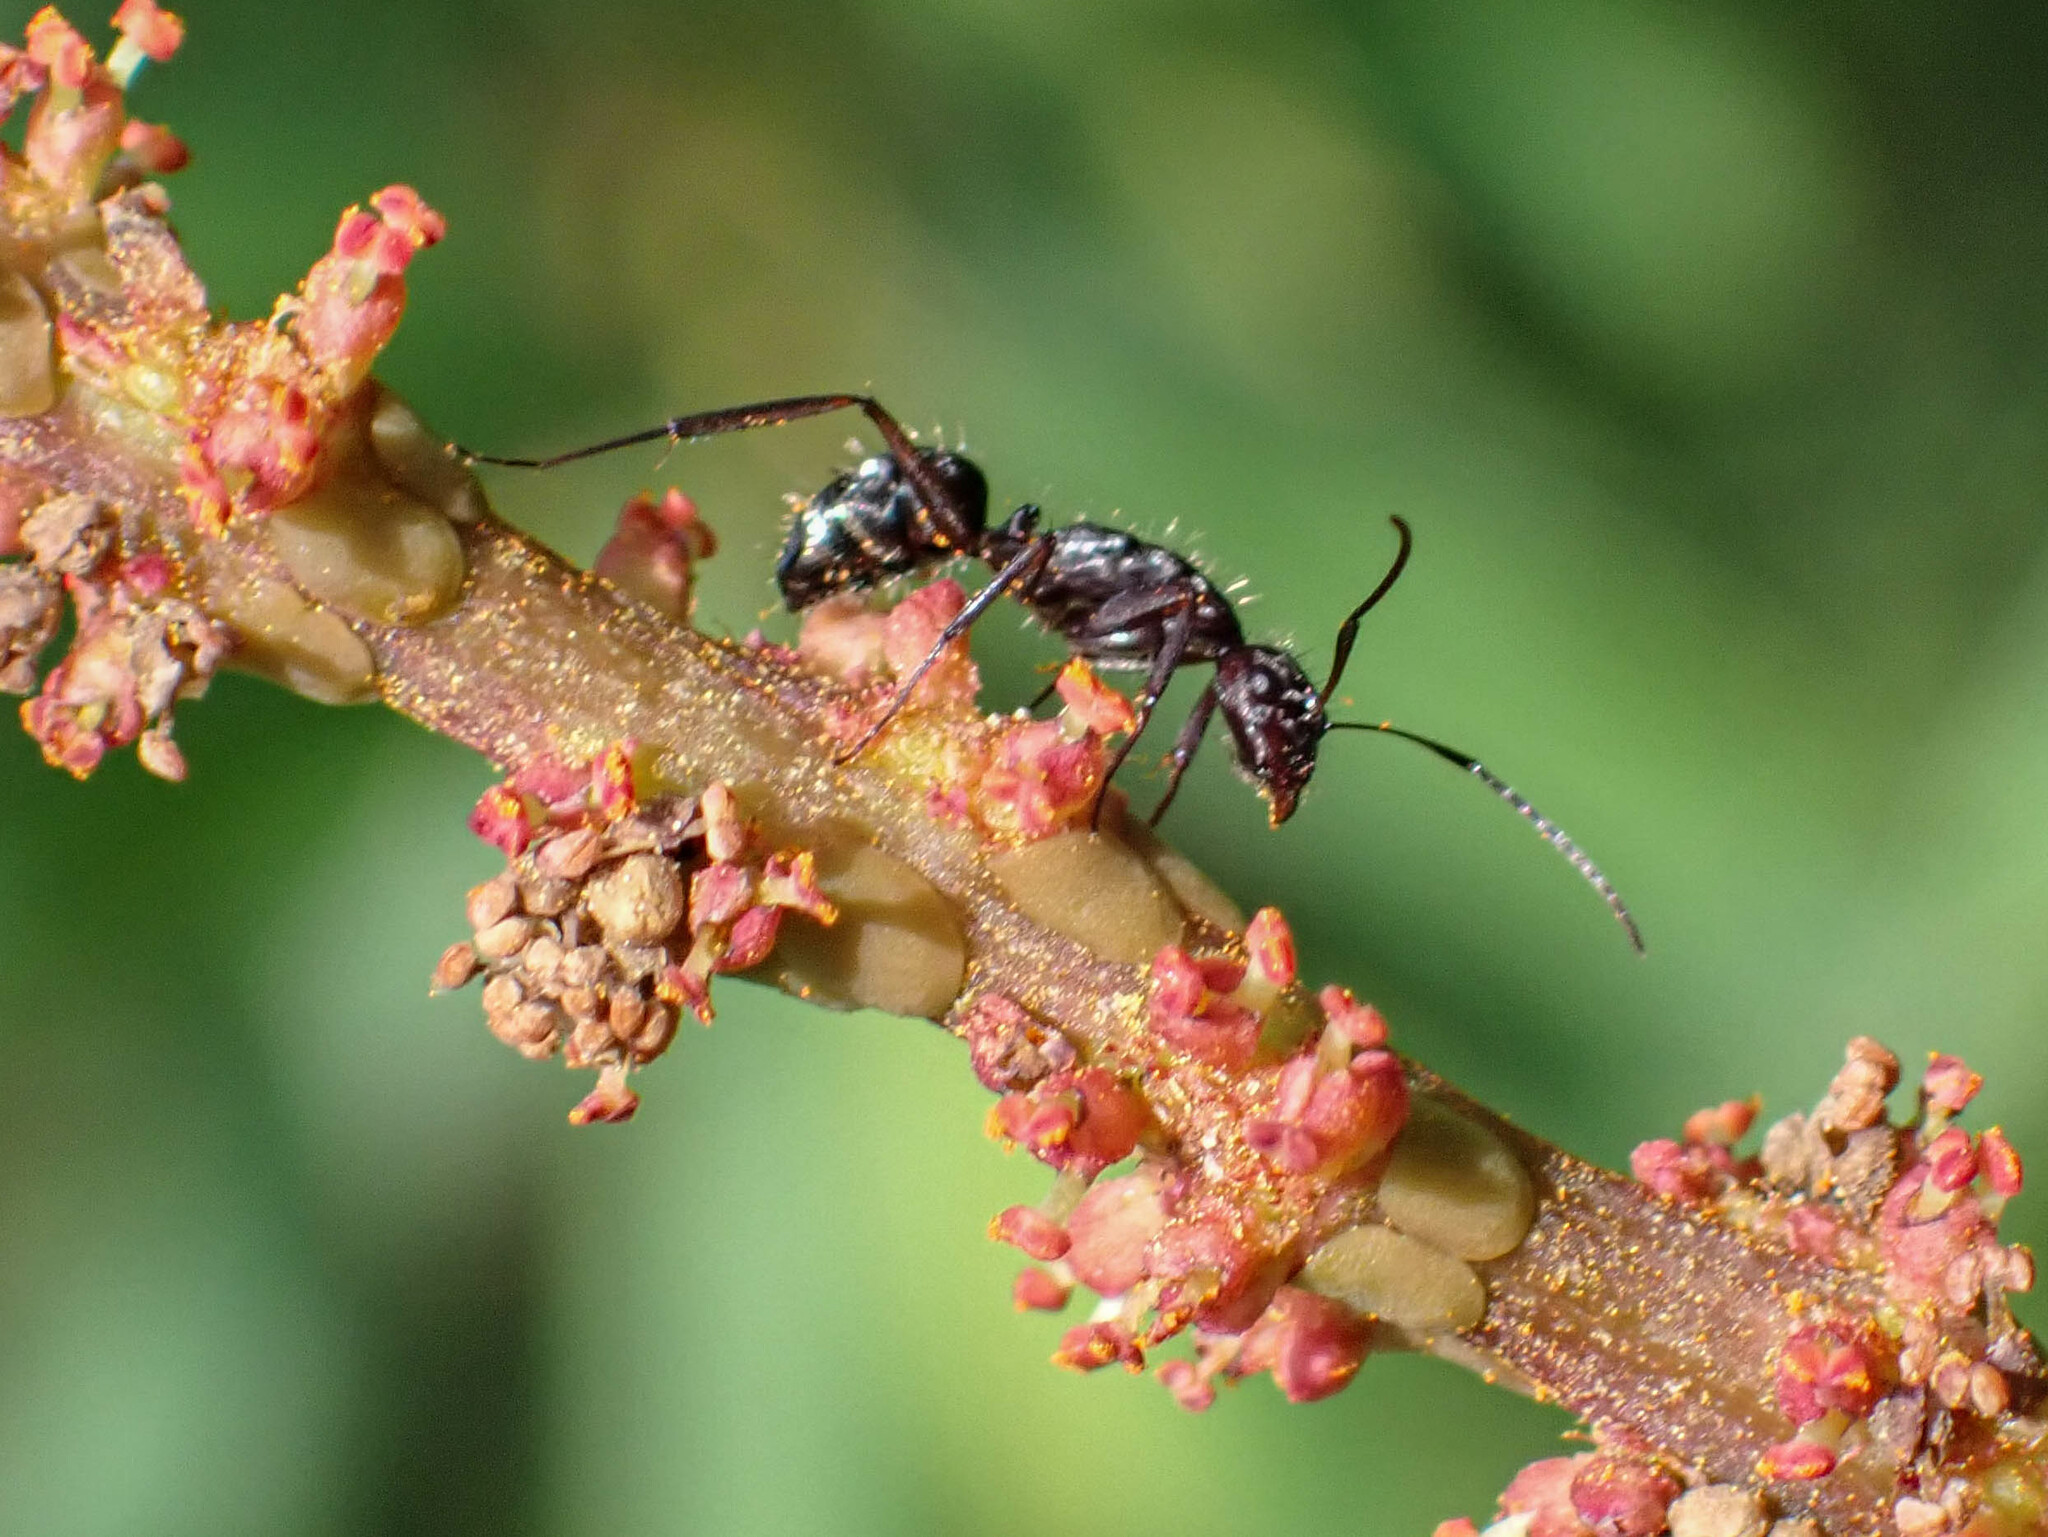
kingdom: Animalia
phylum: Arthropoda
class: Insecta
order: Hymenoptera
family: Formicidae
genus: Camponotus
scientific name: Camponotus coruscus
